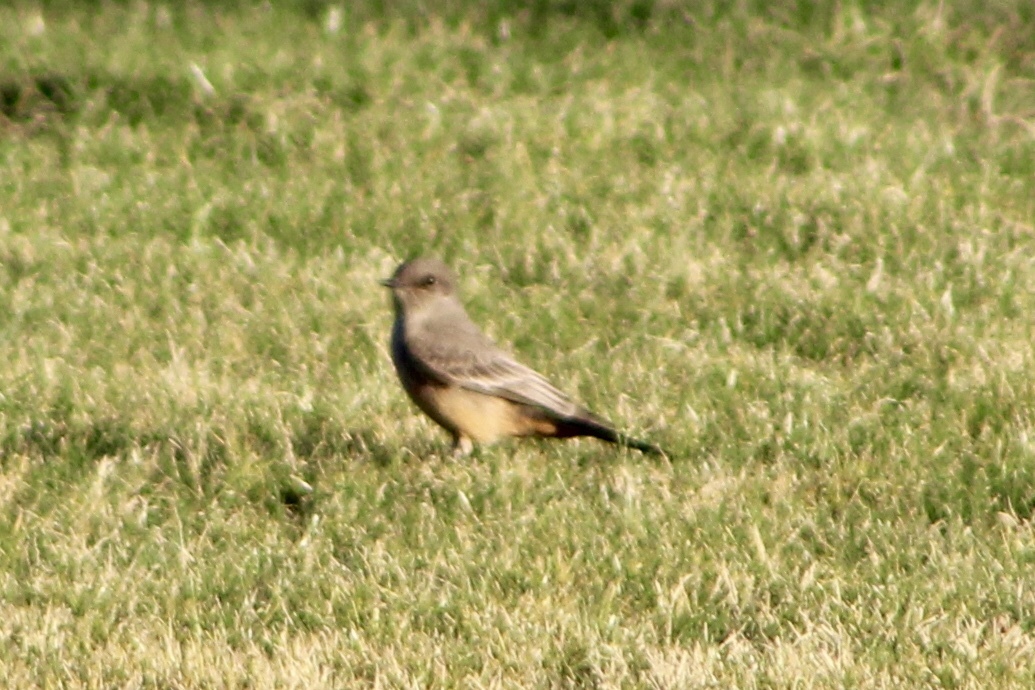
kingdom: Animalia
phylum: Chordata
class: Aves
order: Passeriformes
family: Tyrannidae
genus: Sayornis
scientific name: Sayornis saya
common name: Say's phoebe
